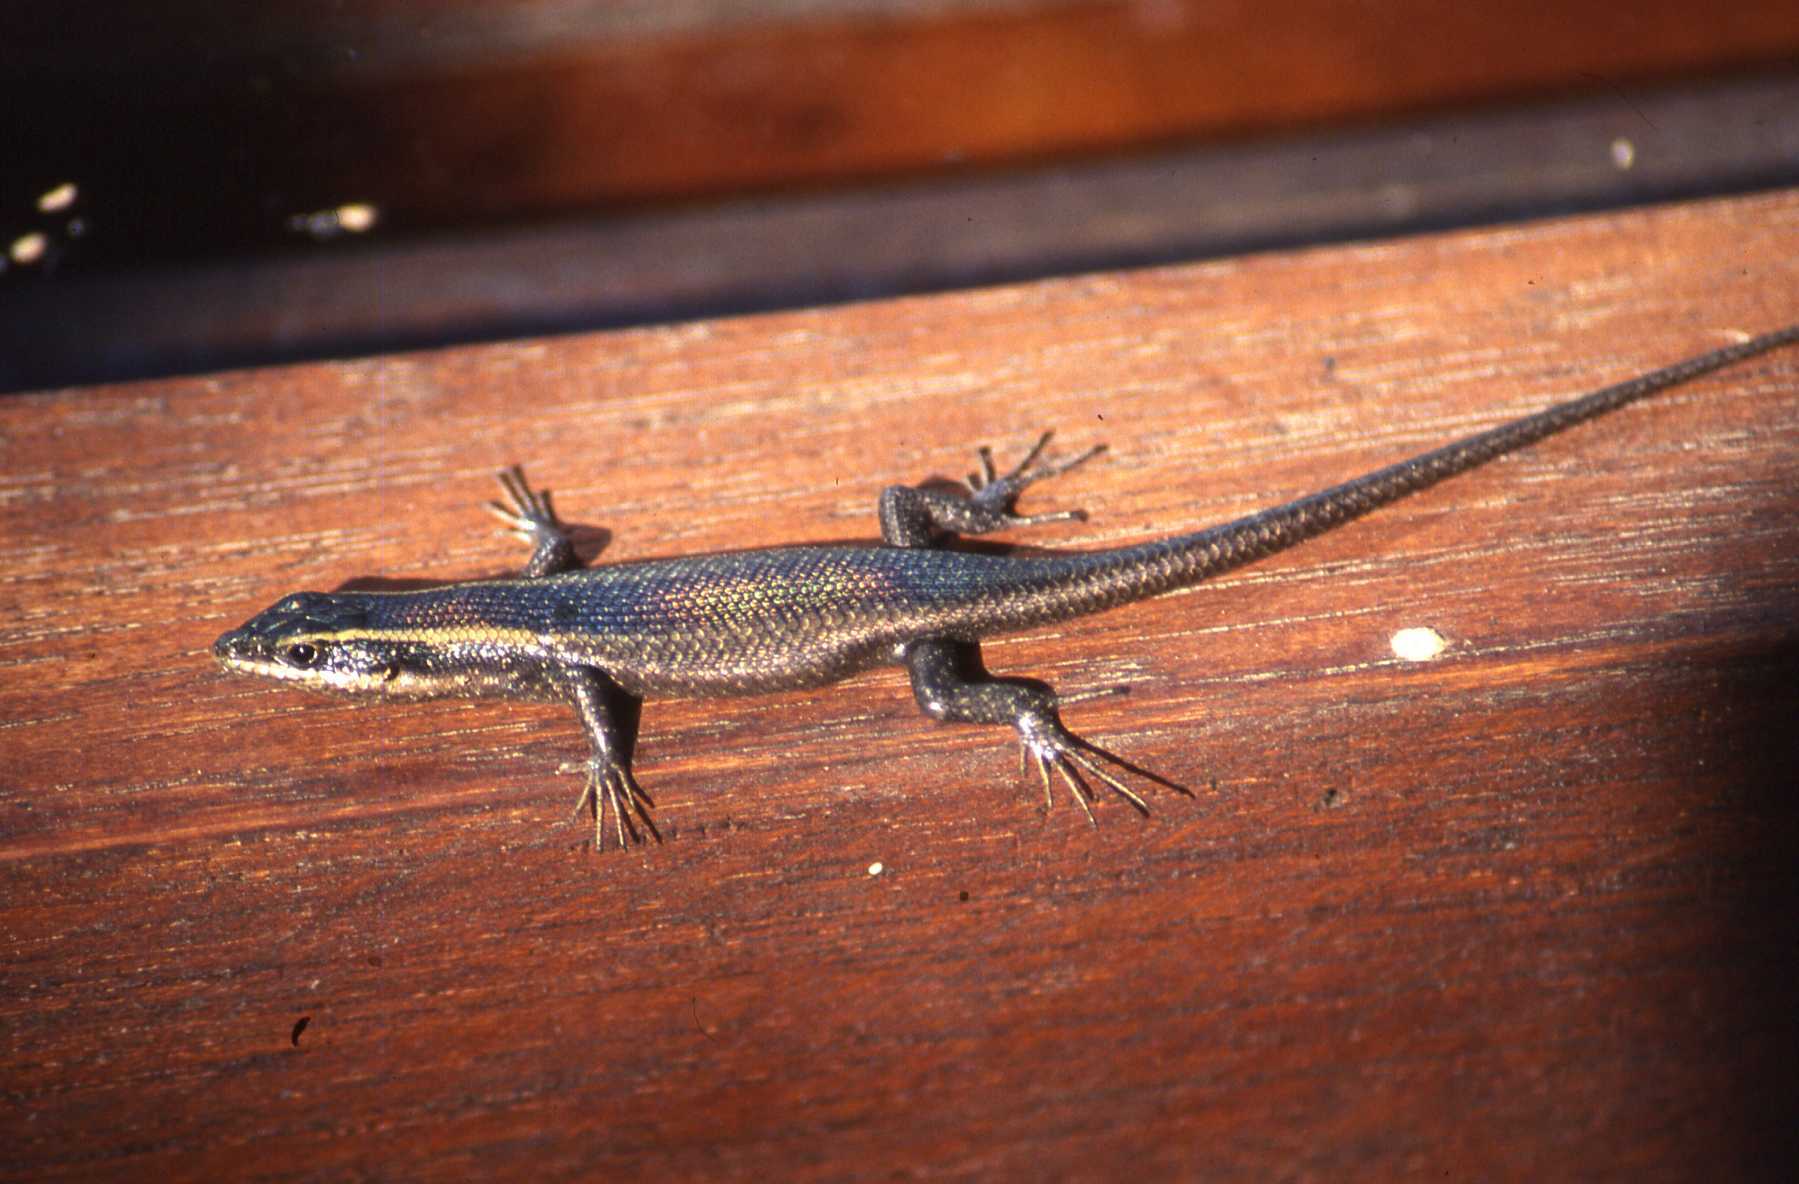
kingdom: Animalia
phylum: Chordata
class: Squamata
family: Scincidae
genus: Trachylepis
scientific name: Trachylepis punctatissima
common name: Montane speckled skink
